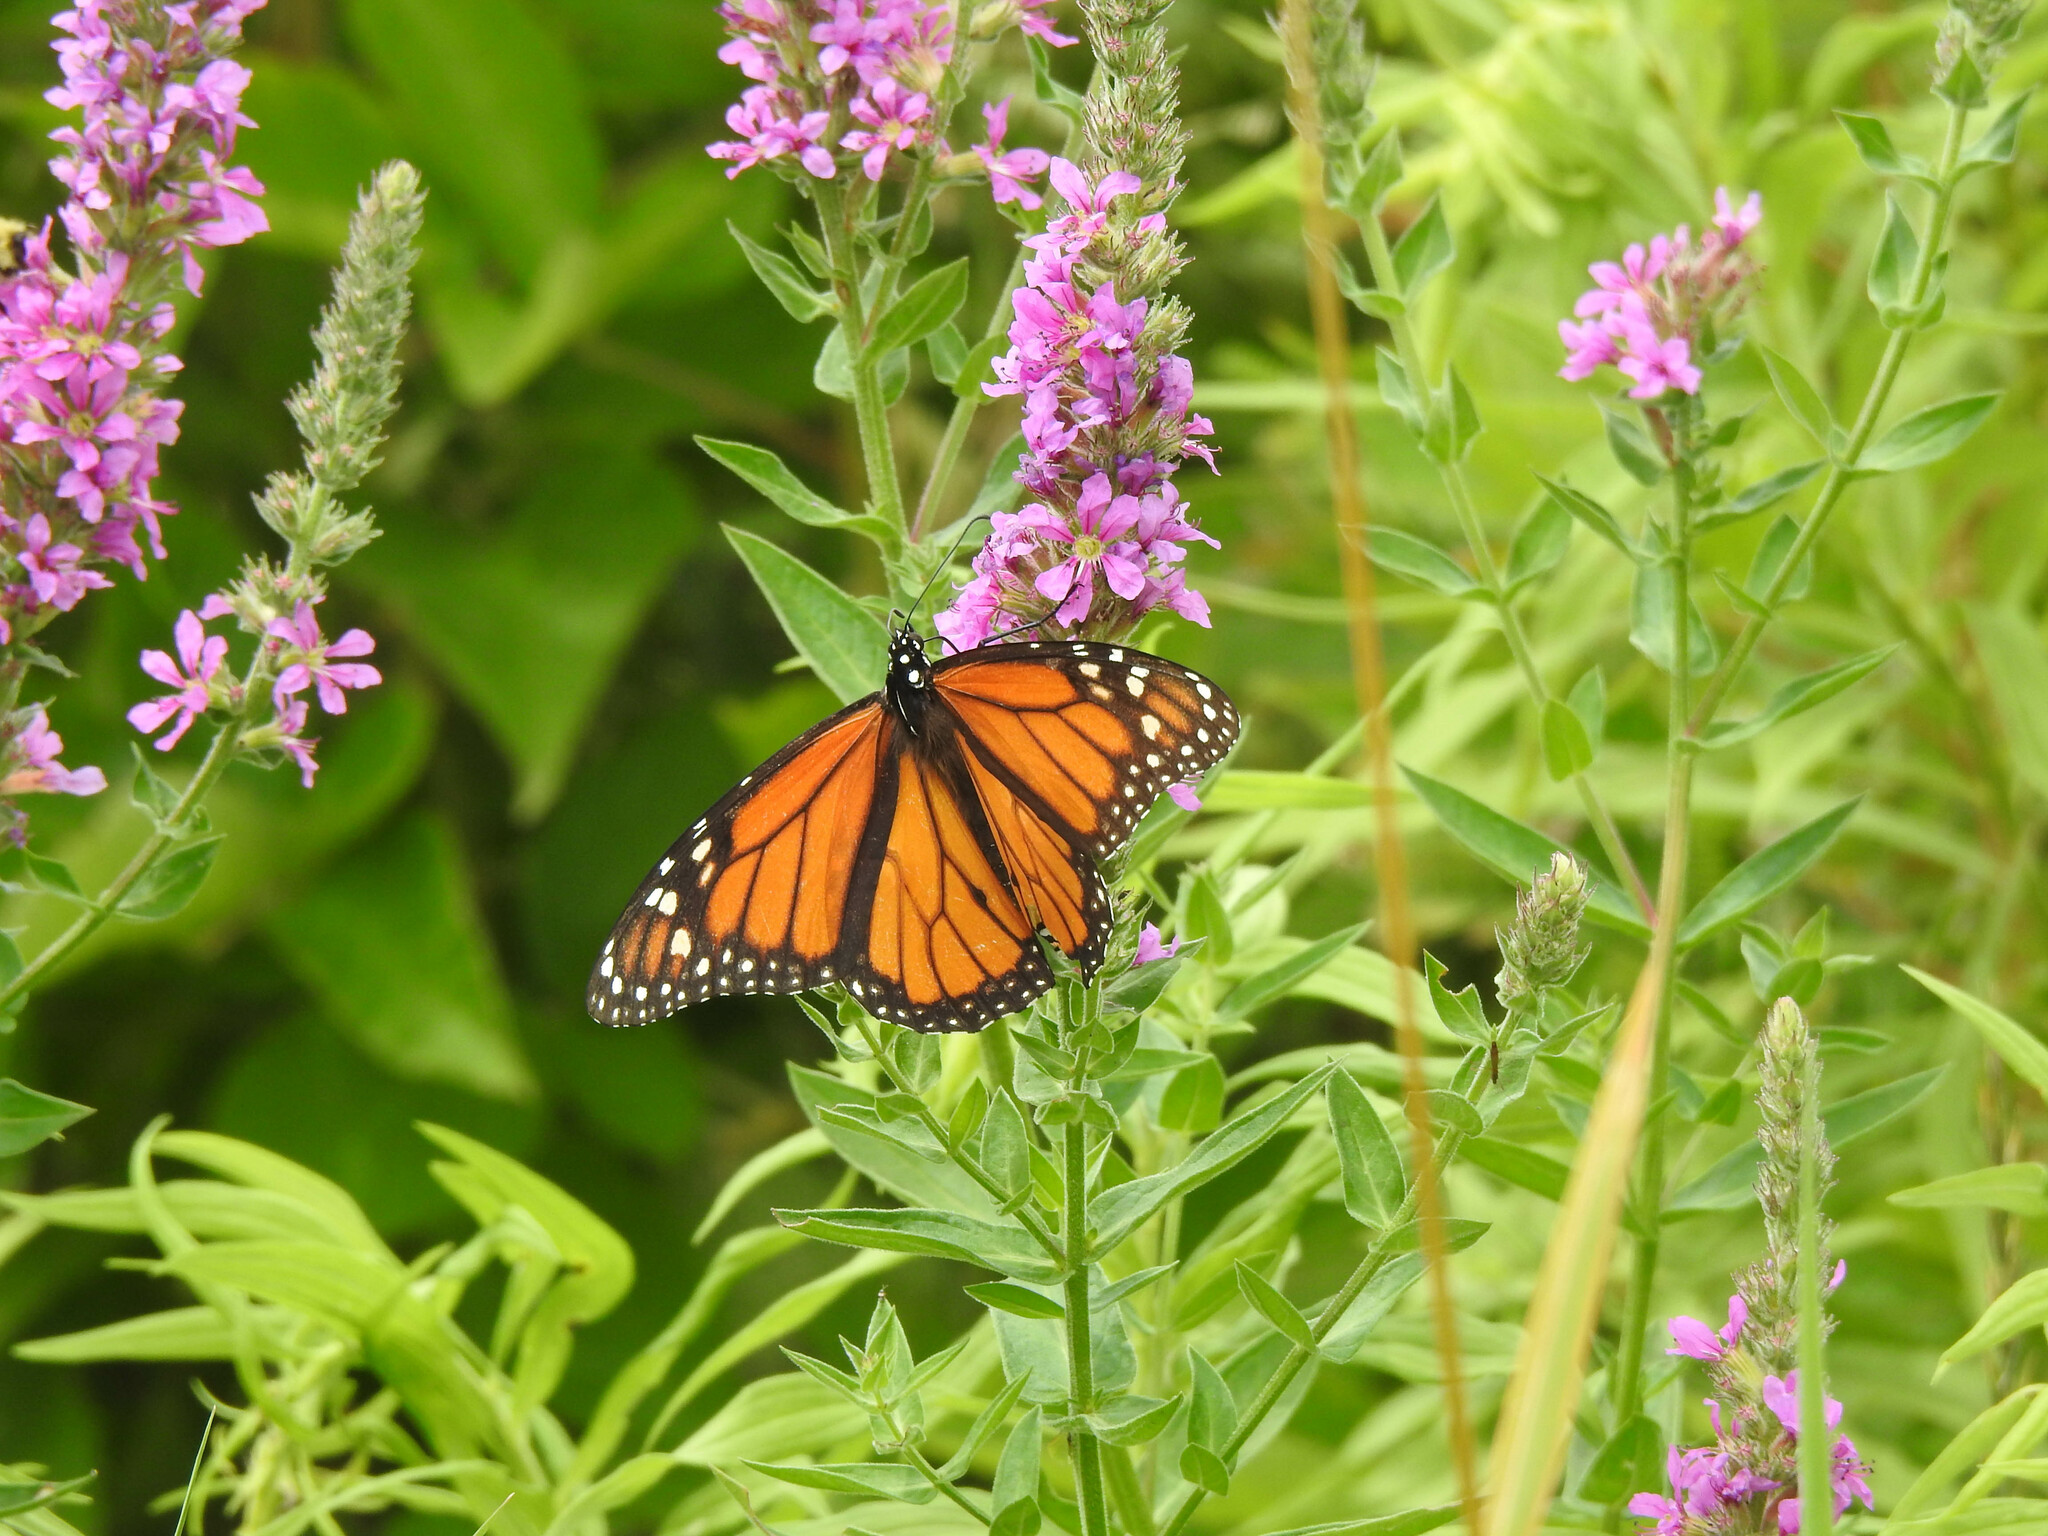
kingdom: Animalia
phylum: Arthropoda
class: Insecta
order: Lepidoptera
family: Nymphalidae
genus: Danaus
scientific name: Danaus plexippus
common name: Monarch
